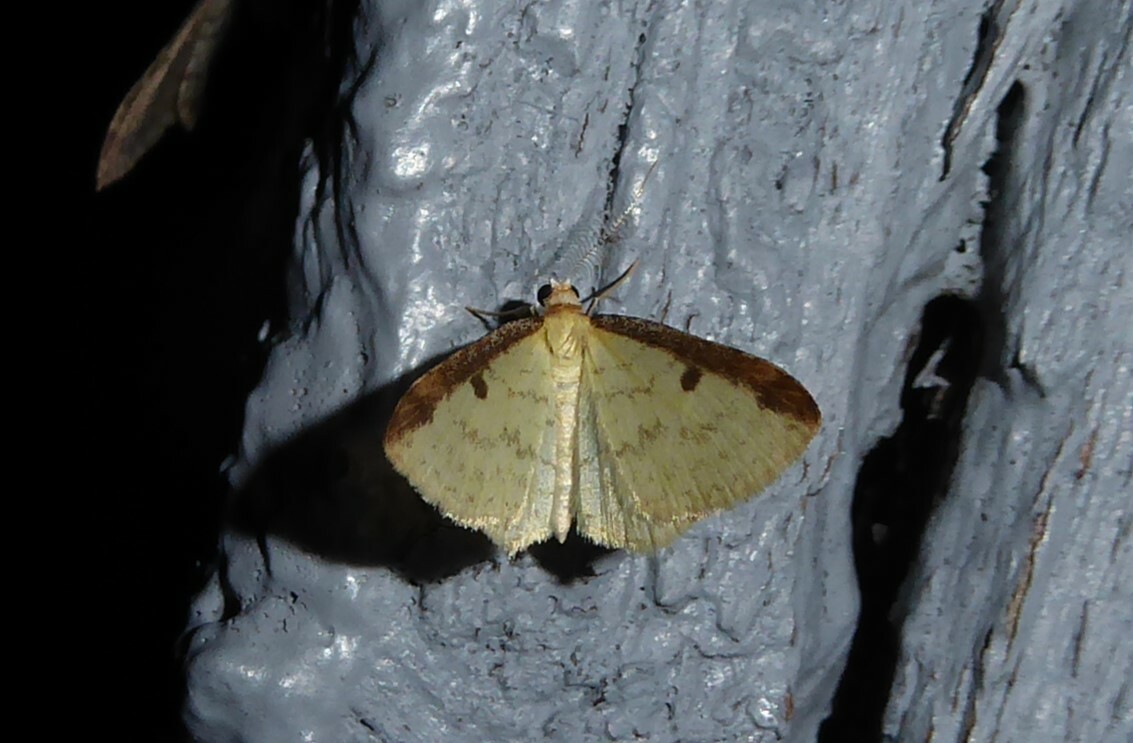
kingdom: Animalia
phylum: Arthropoda
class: Insecta
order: Lepidoptera
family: Geometridae
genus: Epiphryne
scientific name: Epiphryne undosata
